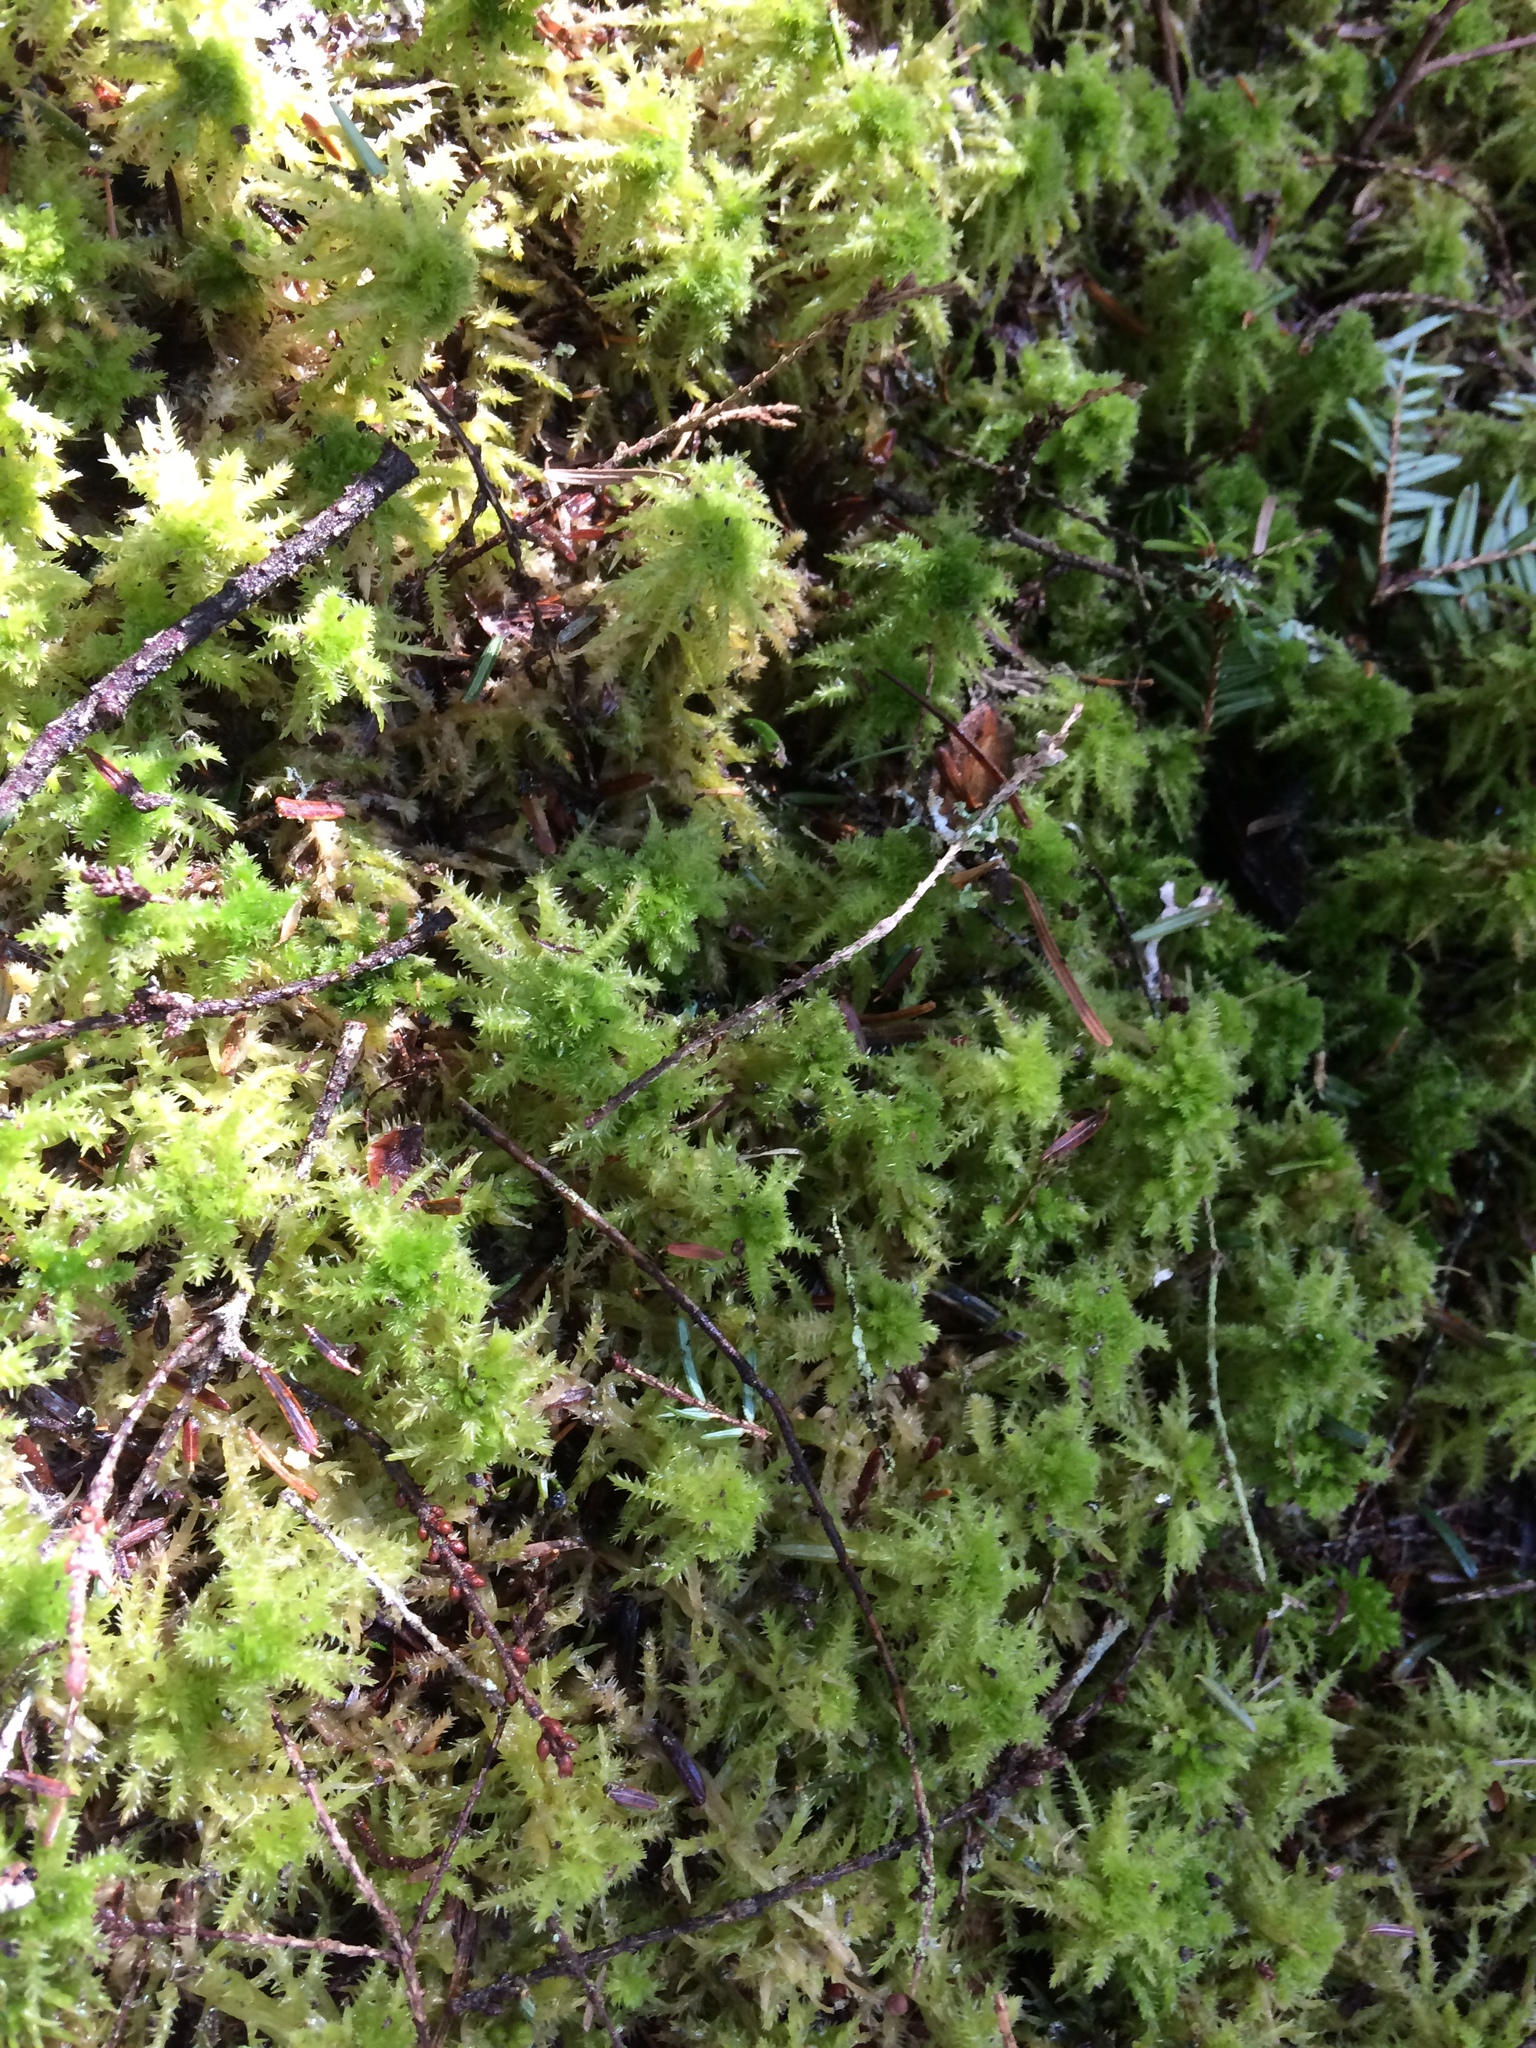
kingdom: Plantae
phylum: Bryophyta
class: Sphagnopsida
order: Sphagnales
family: Sphagnaceae
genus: Sphagnum
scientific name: Sphagnum squarrosum
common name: Shaggy peat moss
